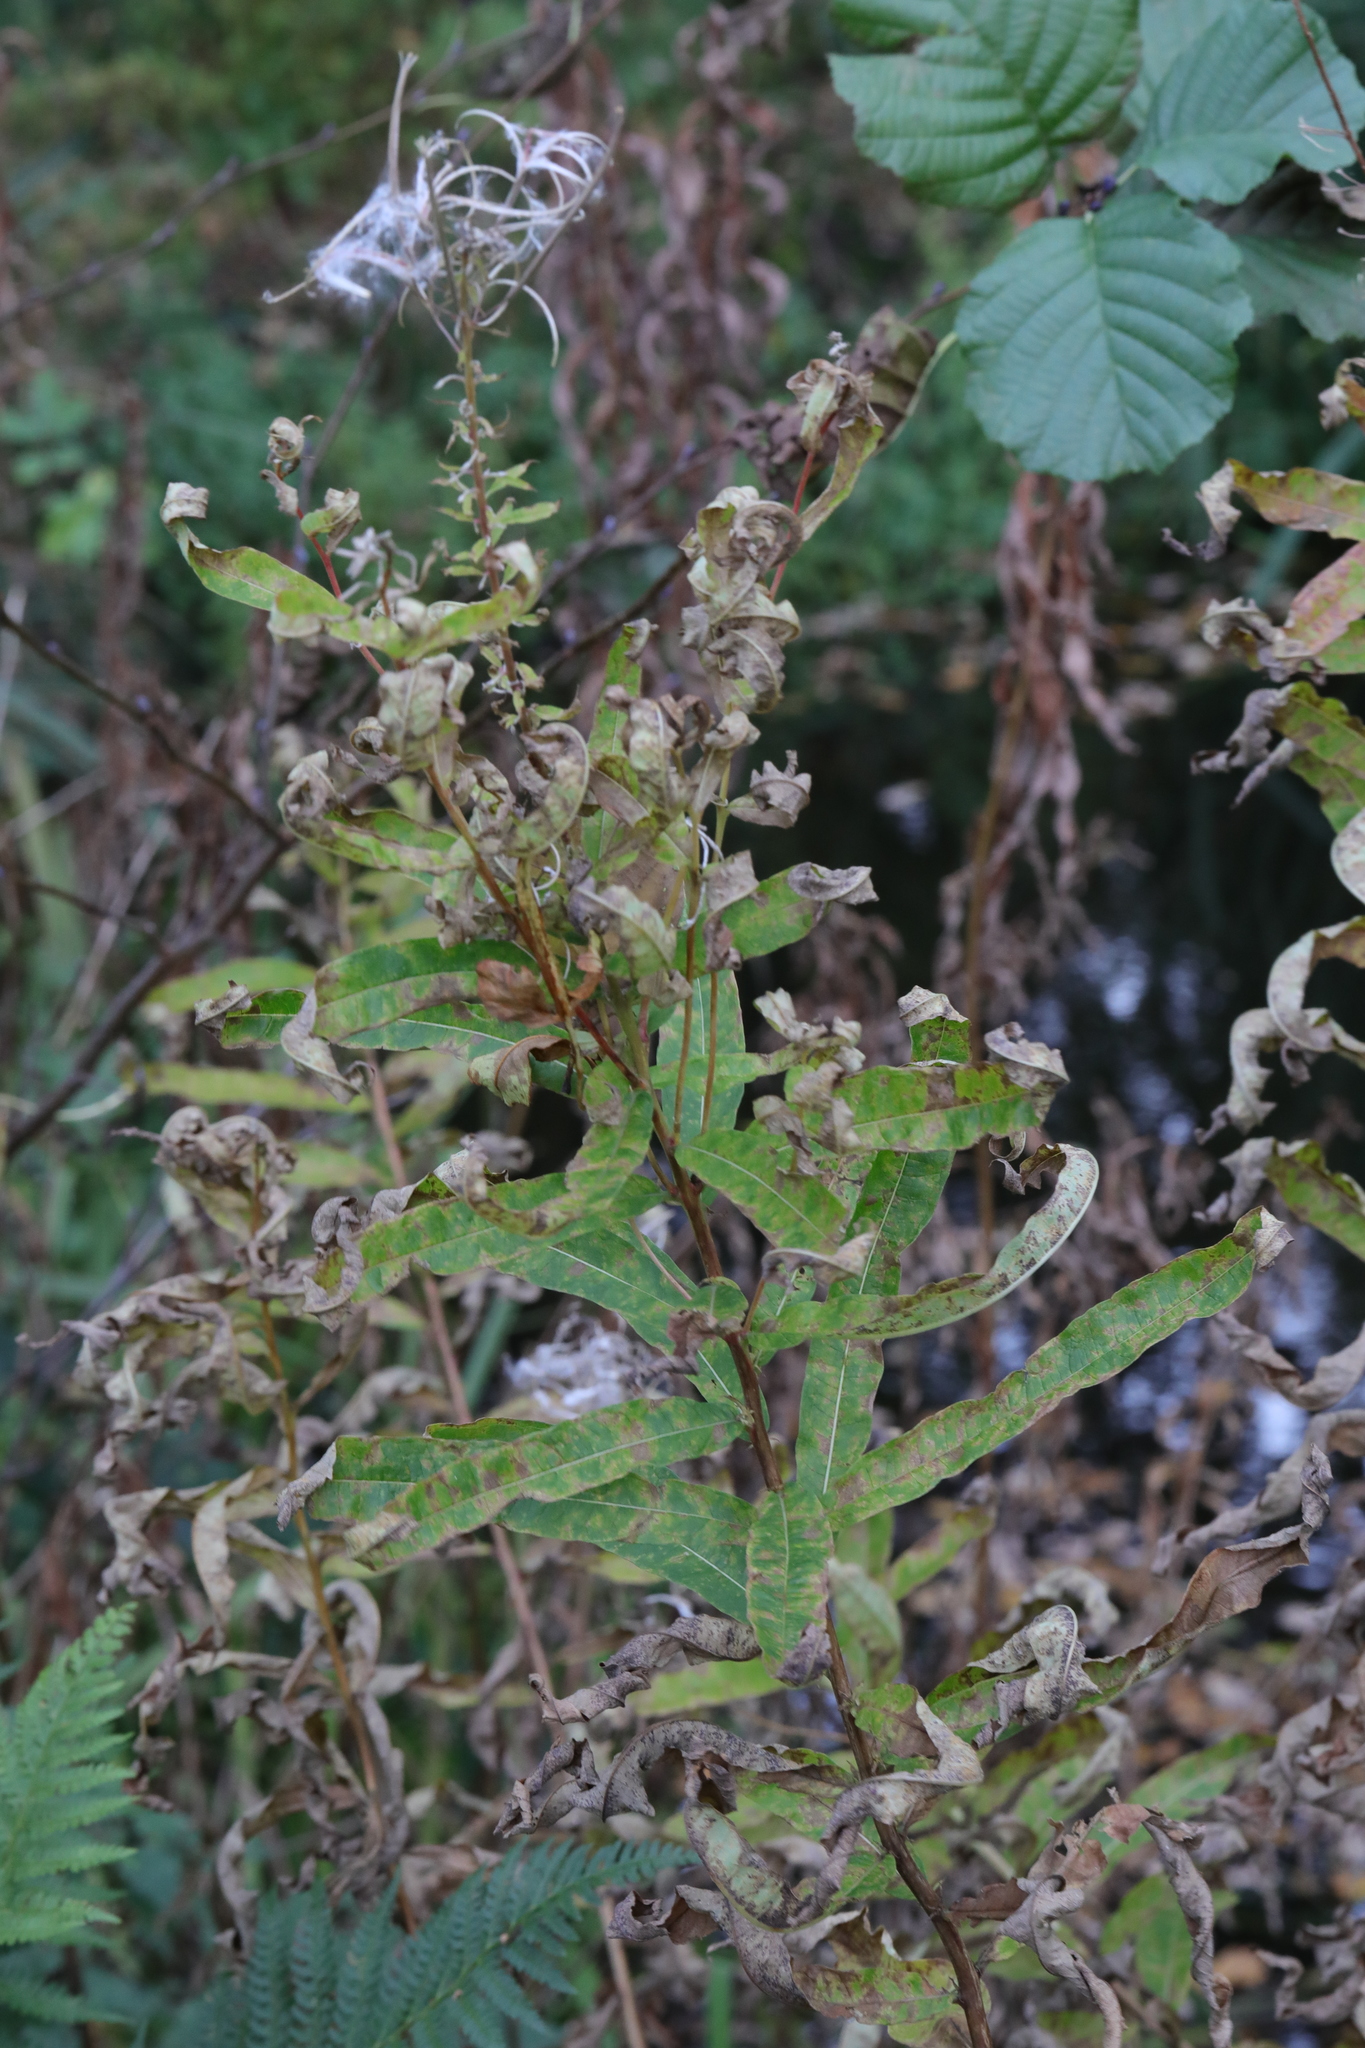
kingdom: Plantae
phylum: Tracheophyta
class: Magnoliopsida
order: Myrtales
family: Onagraceae
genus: Chamaenerion
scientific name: Chamaenerion angustifolium
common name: Fireweed
